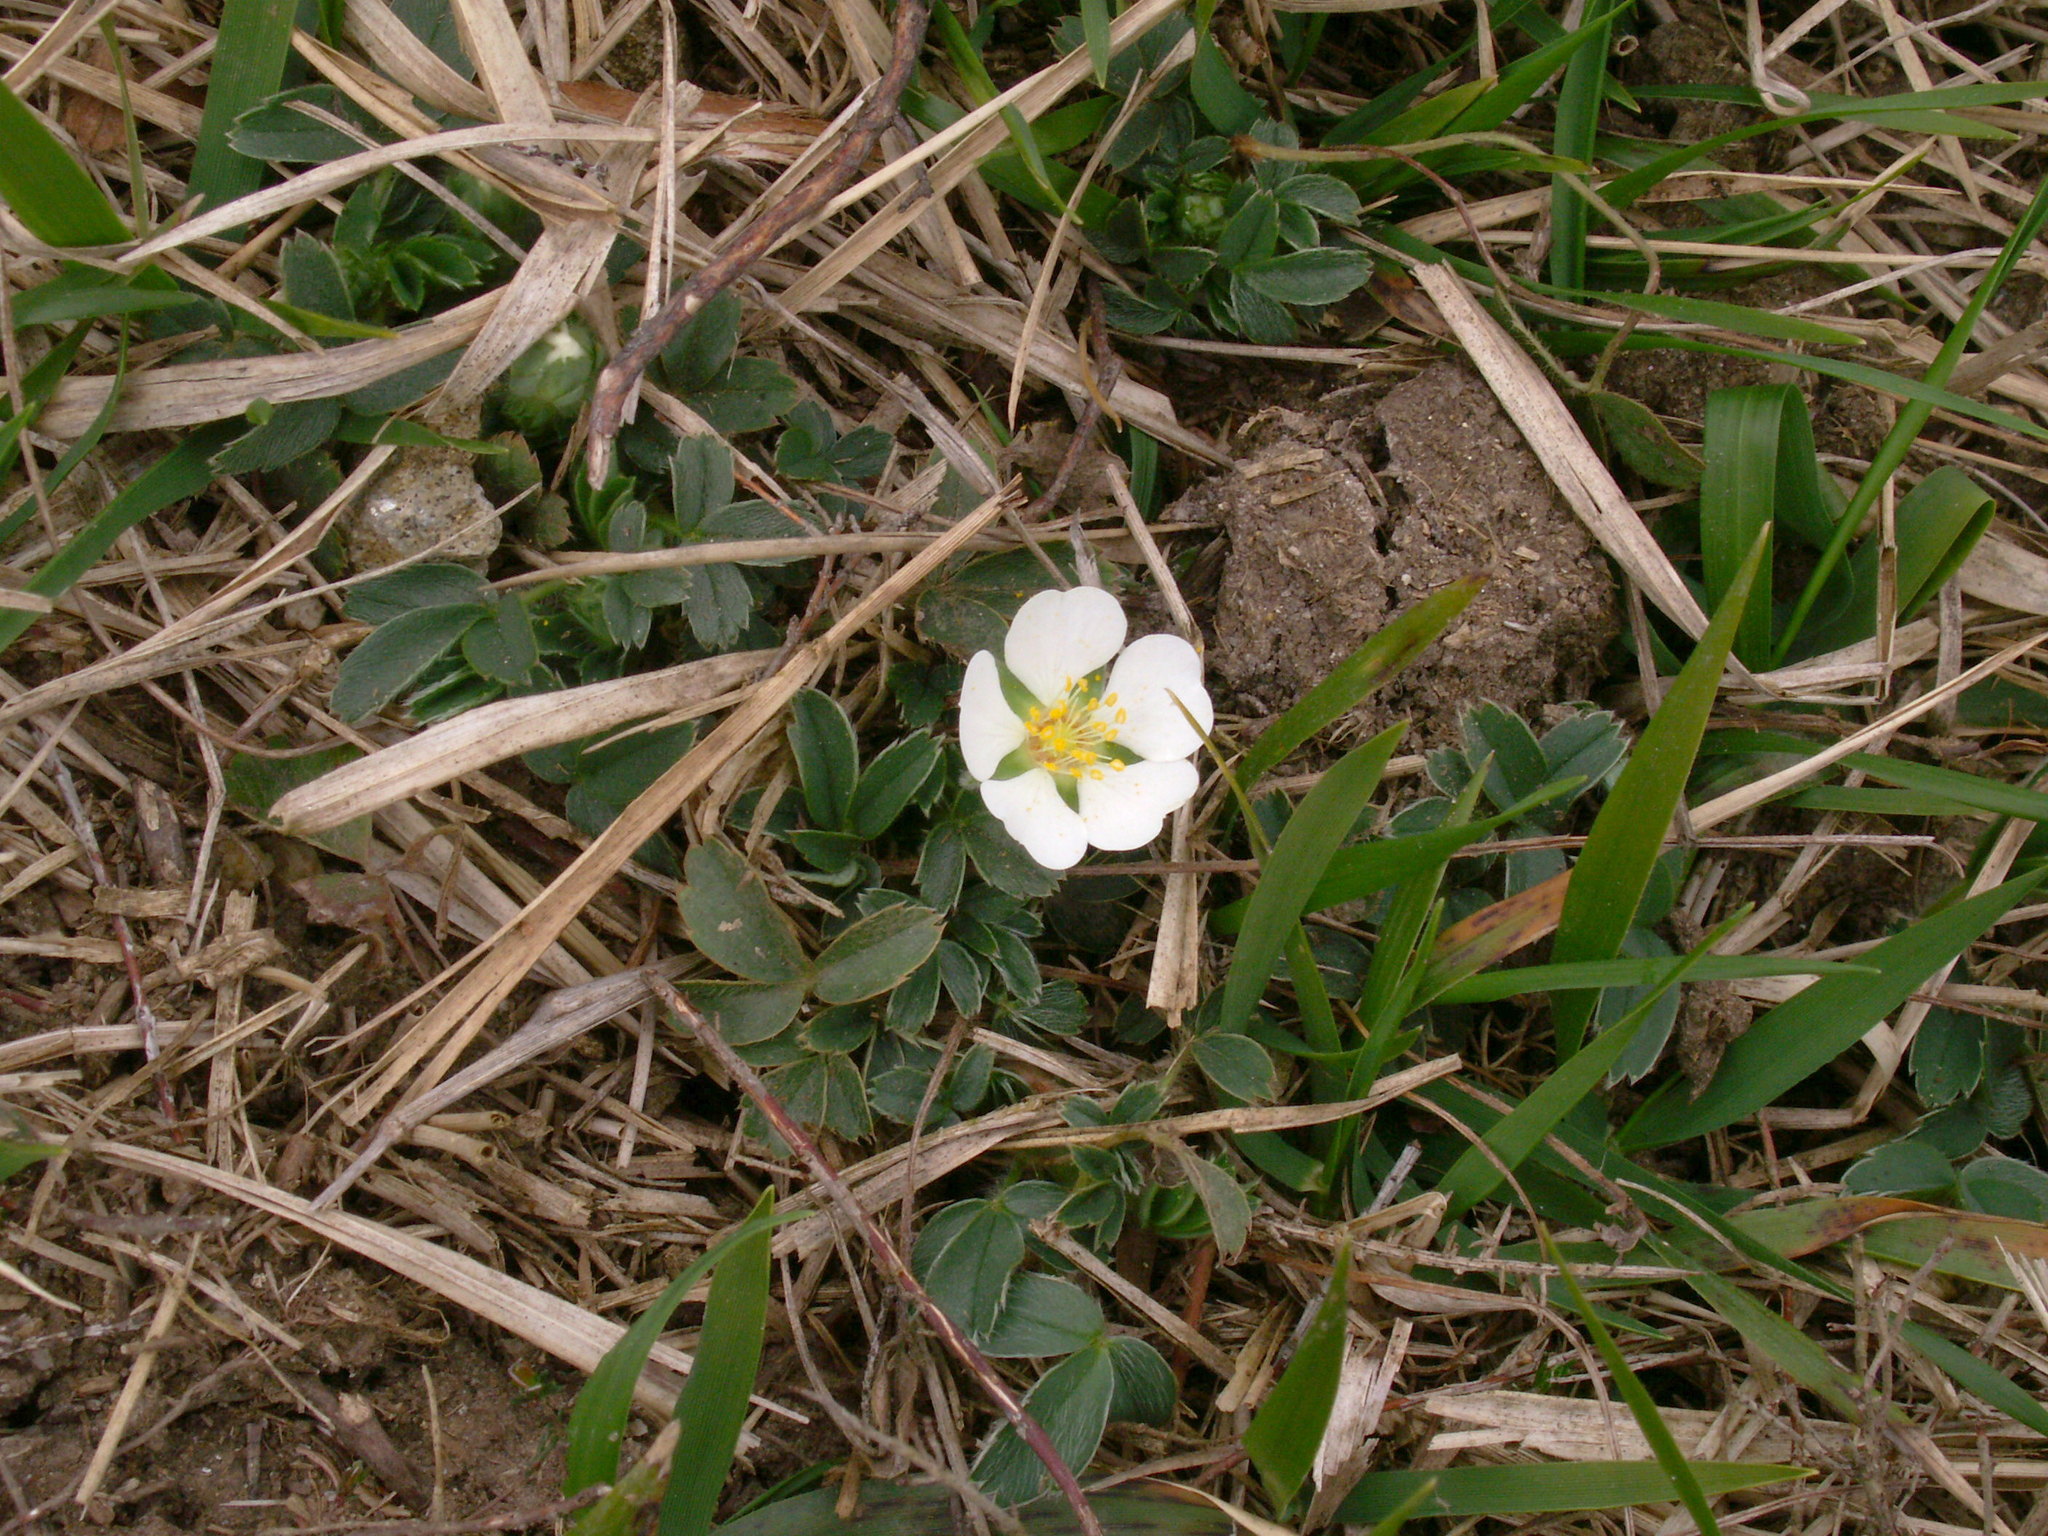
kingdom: Plantae
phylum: Tracheophyta
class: Magnoliopsida
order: Rosales
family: Rosaceae
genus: Potentilla
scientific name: Potentilla montana
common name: Mountain cinquefoil
